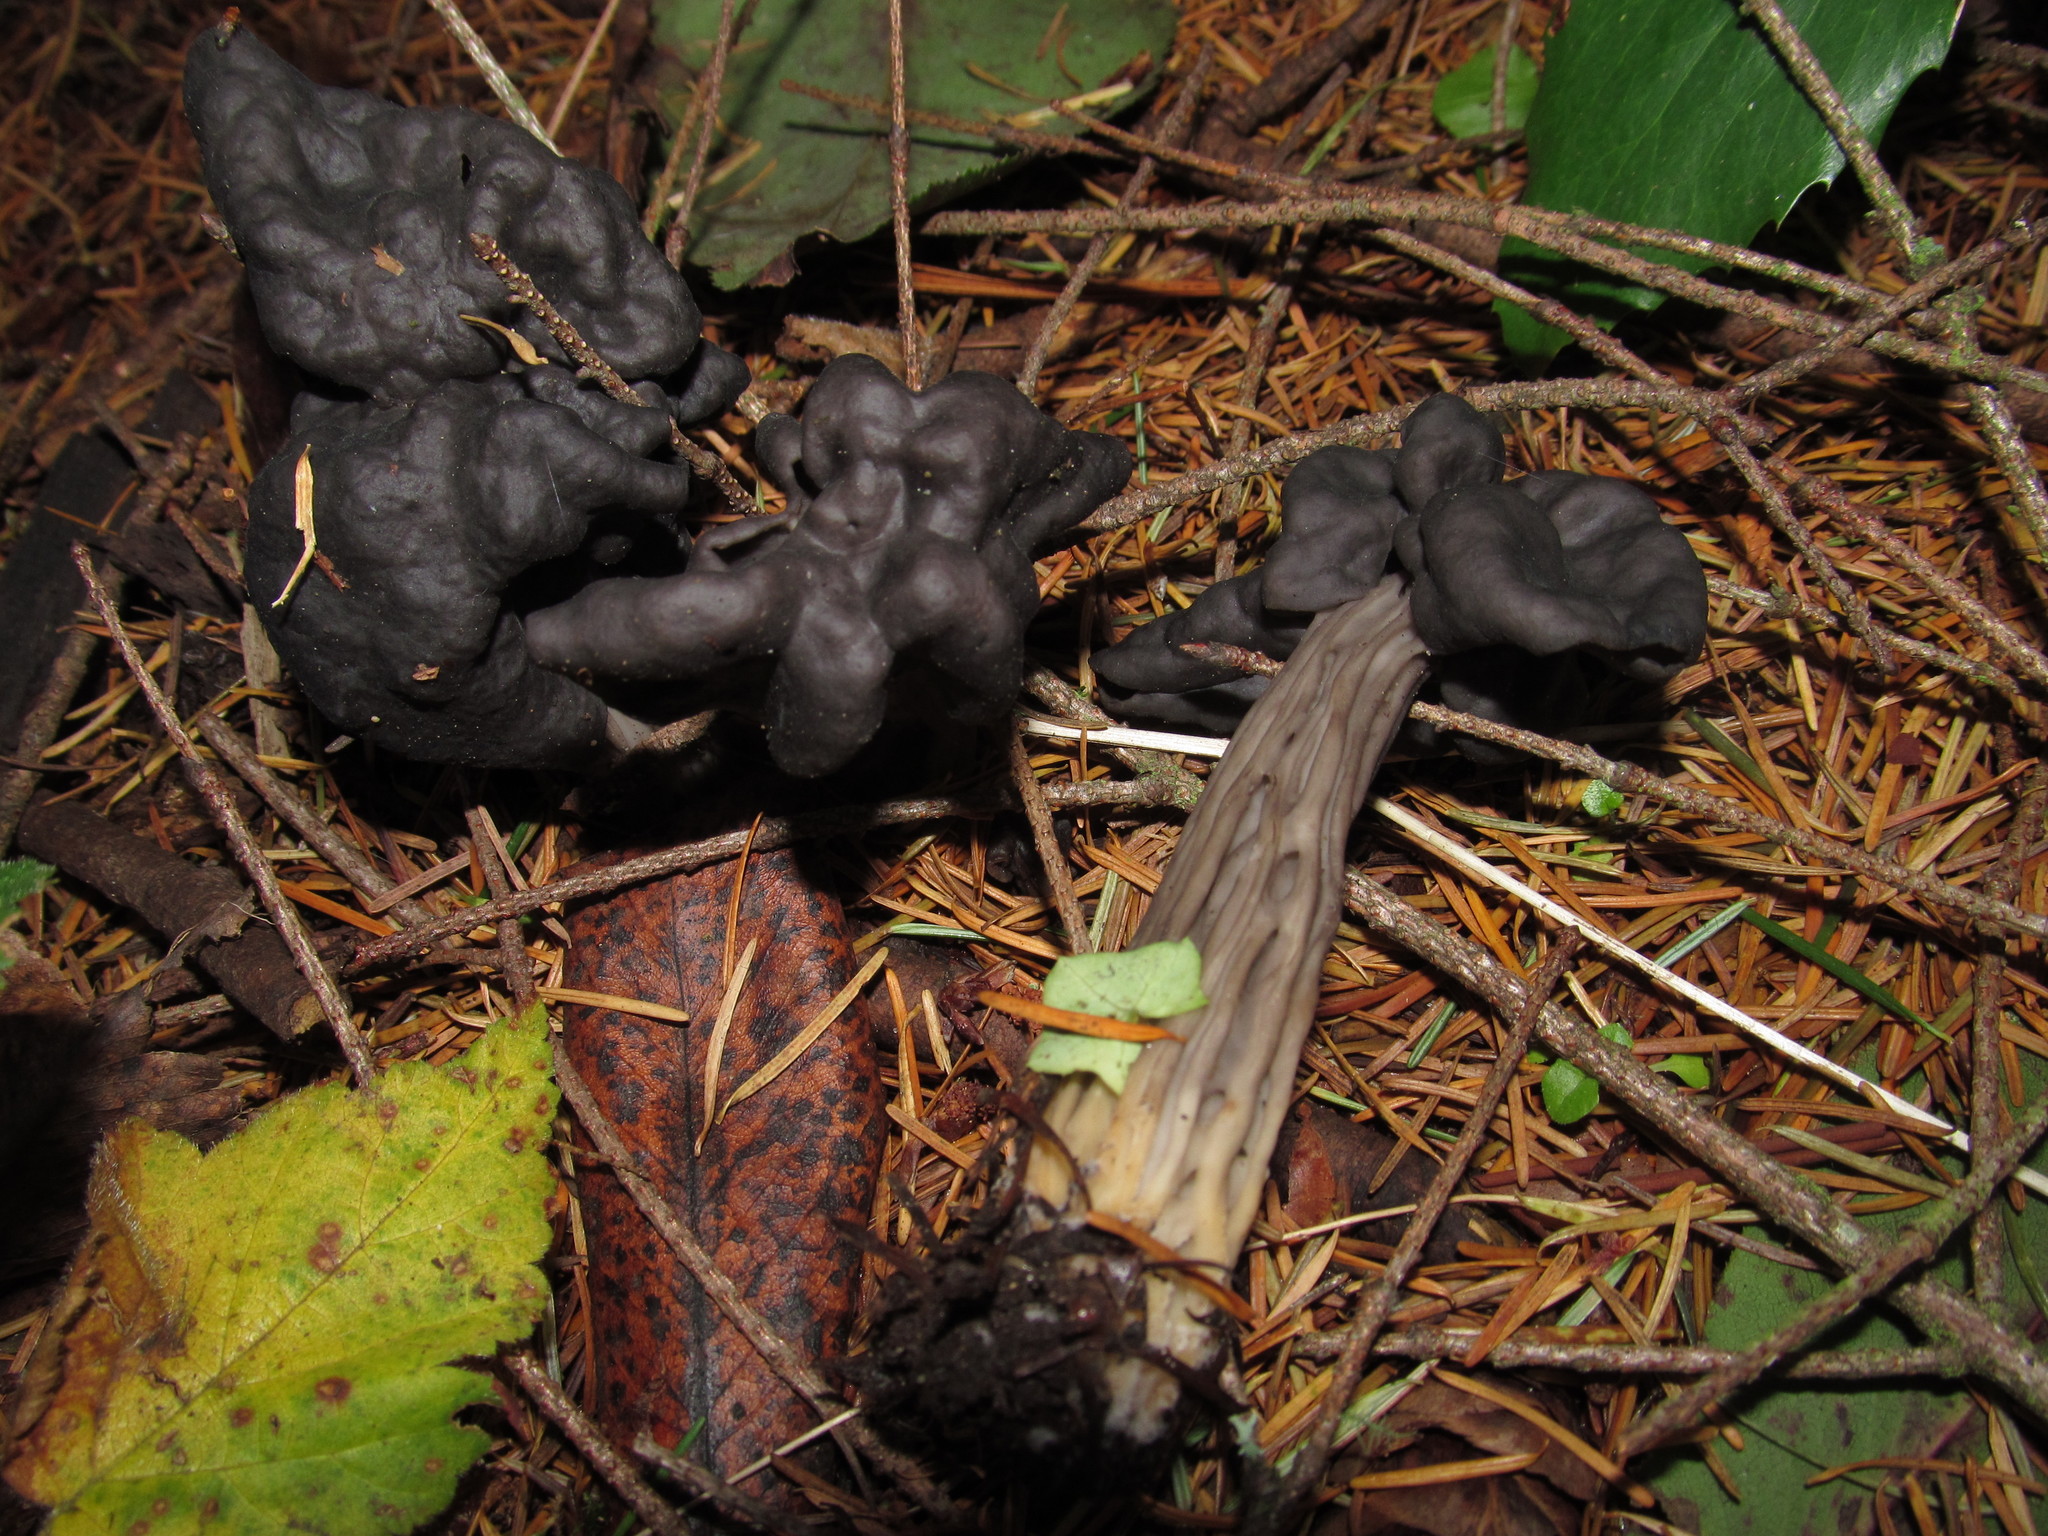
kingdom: Fungi
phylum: Ascomycota
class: Pezizomycetes
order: Pezizales
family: Helvellaceae
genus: Helvella
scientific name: Helvella vespertina
